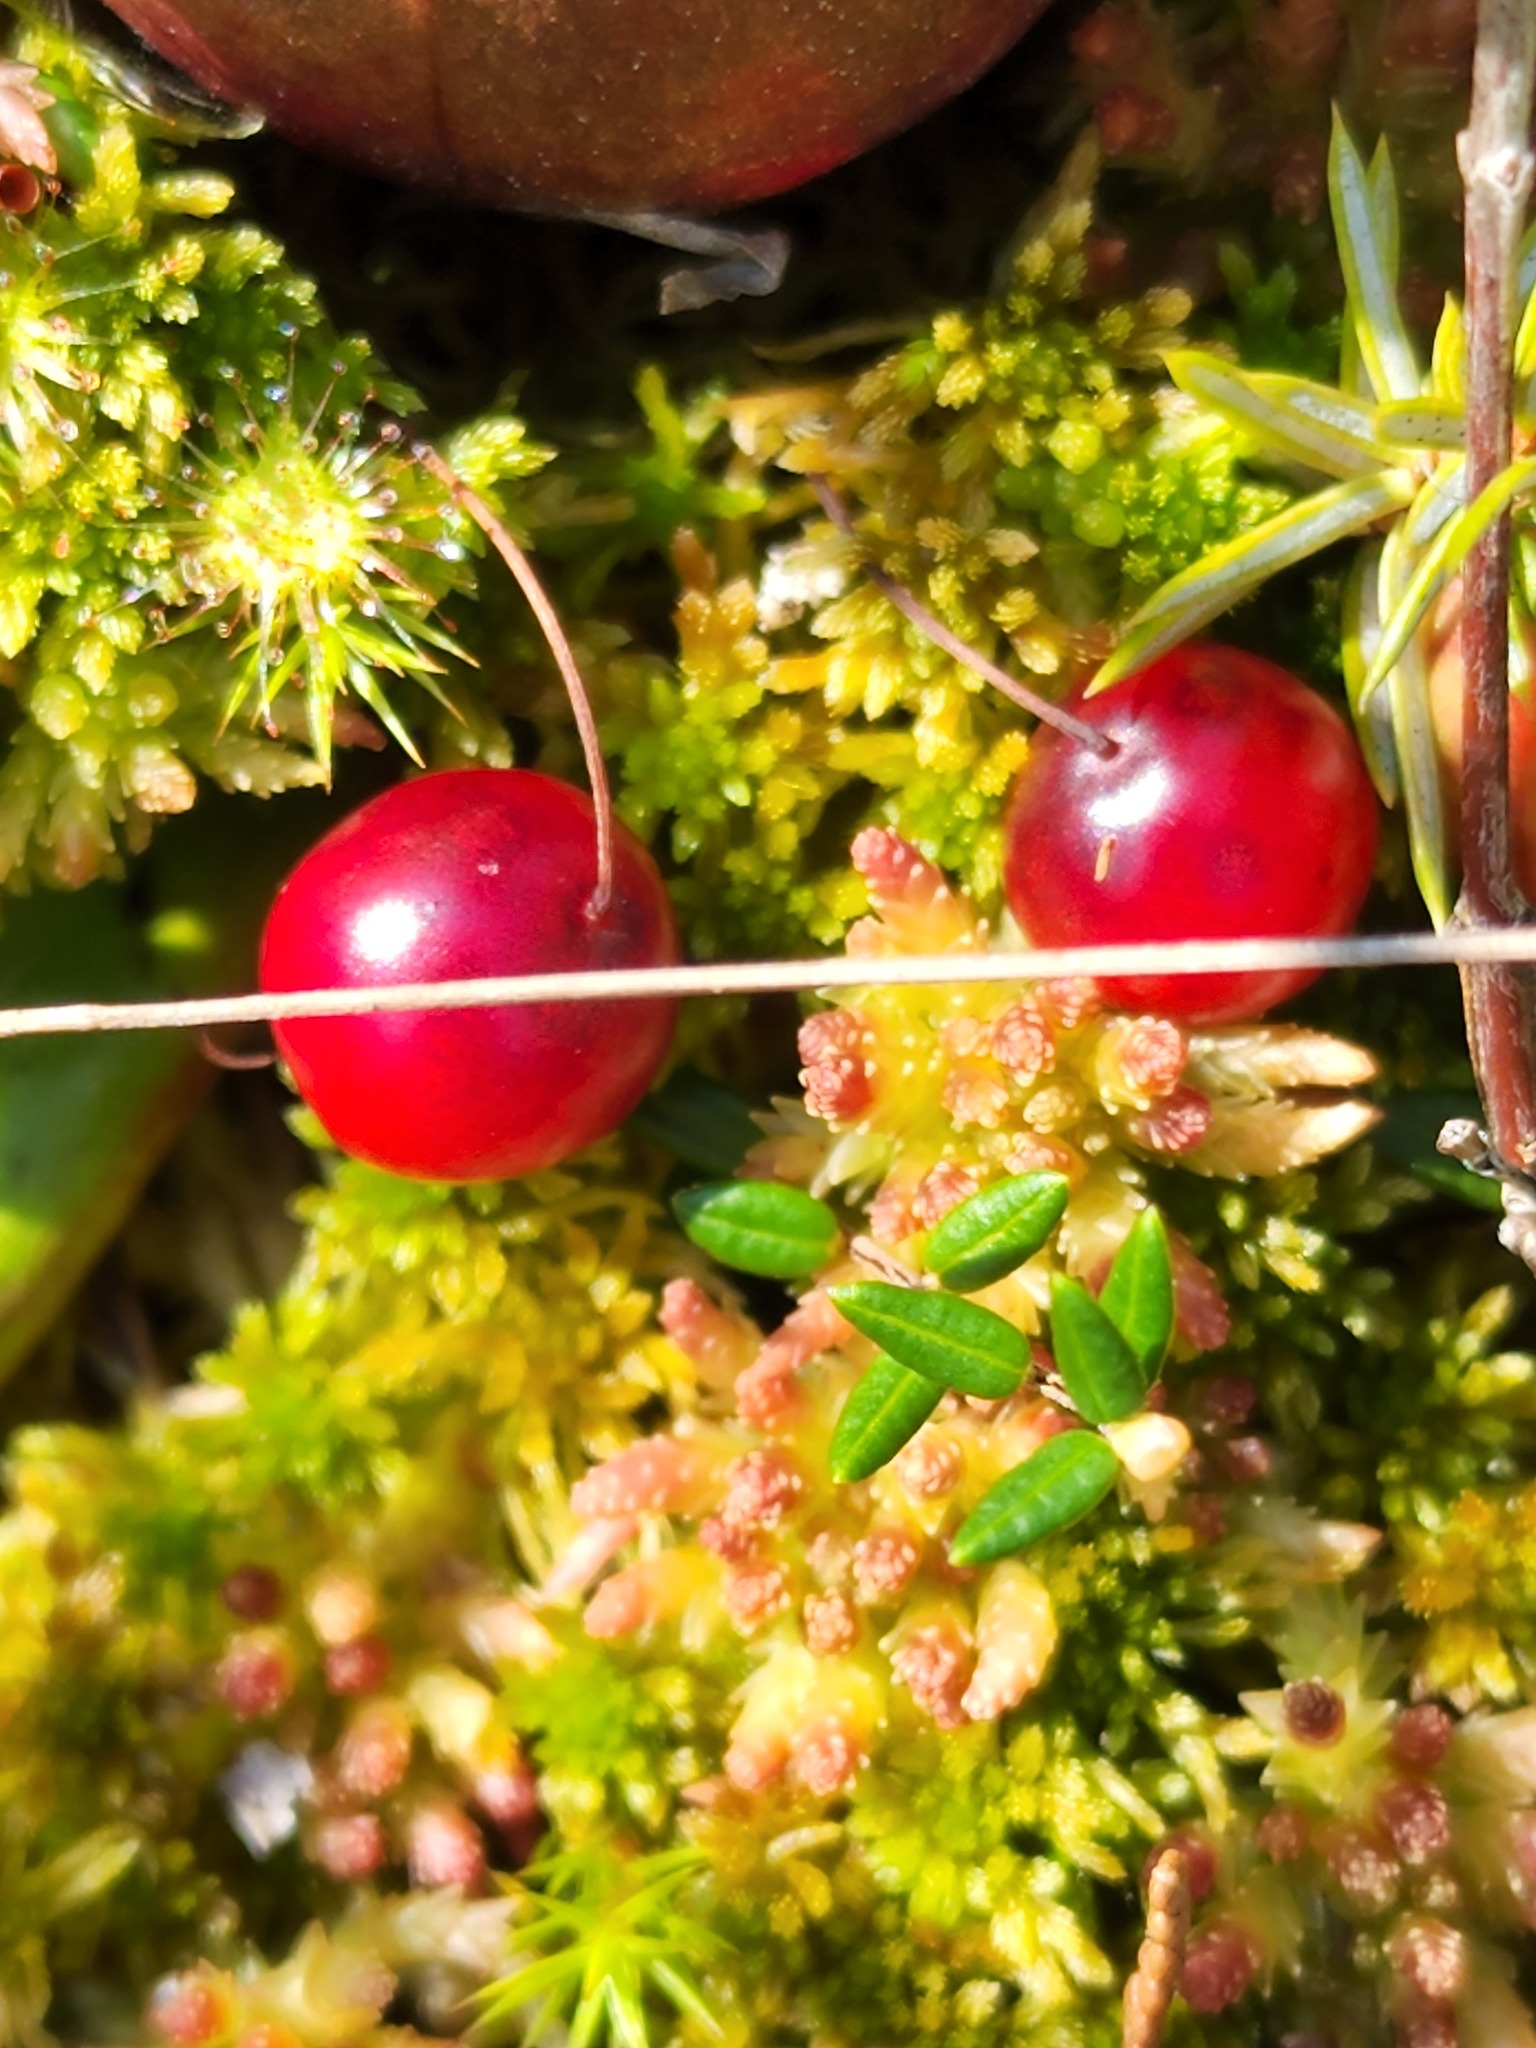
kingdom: Plantae
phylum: Tracheophyta
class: Magnoliopsida
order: Ericales
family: Ericaceae
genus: Vaccinium
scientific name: Vaccinium oxycoccos
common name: Cranberry
